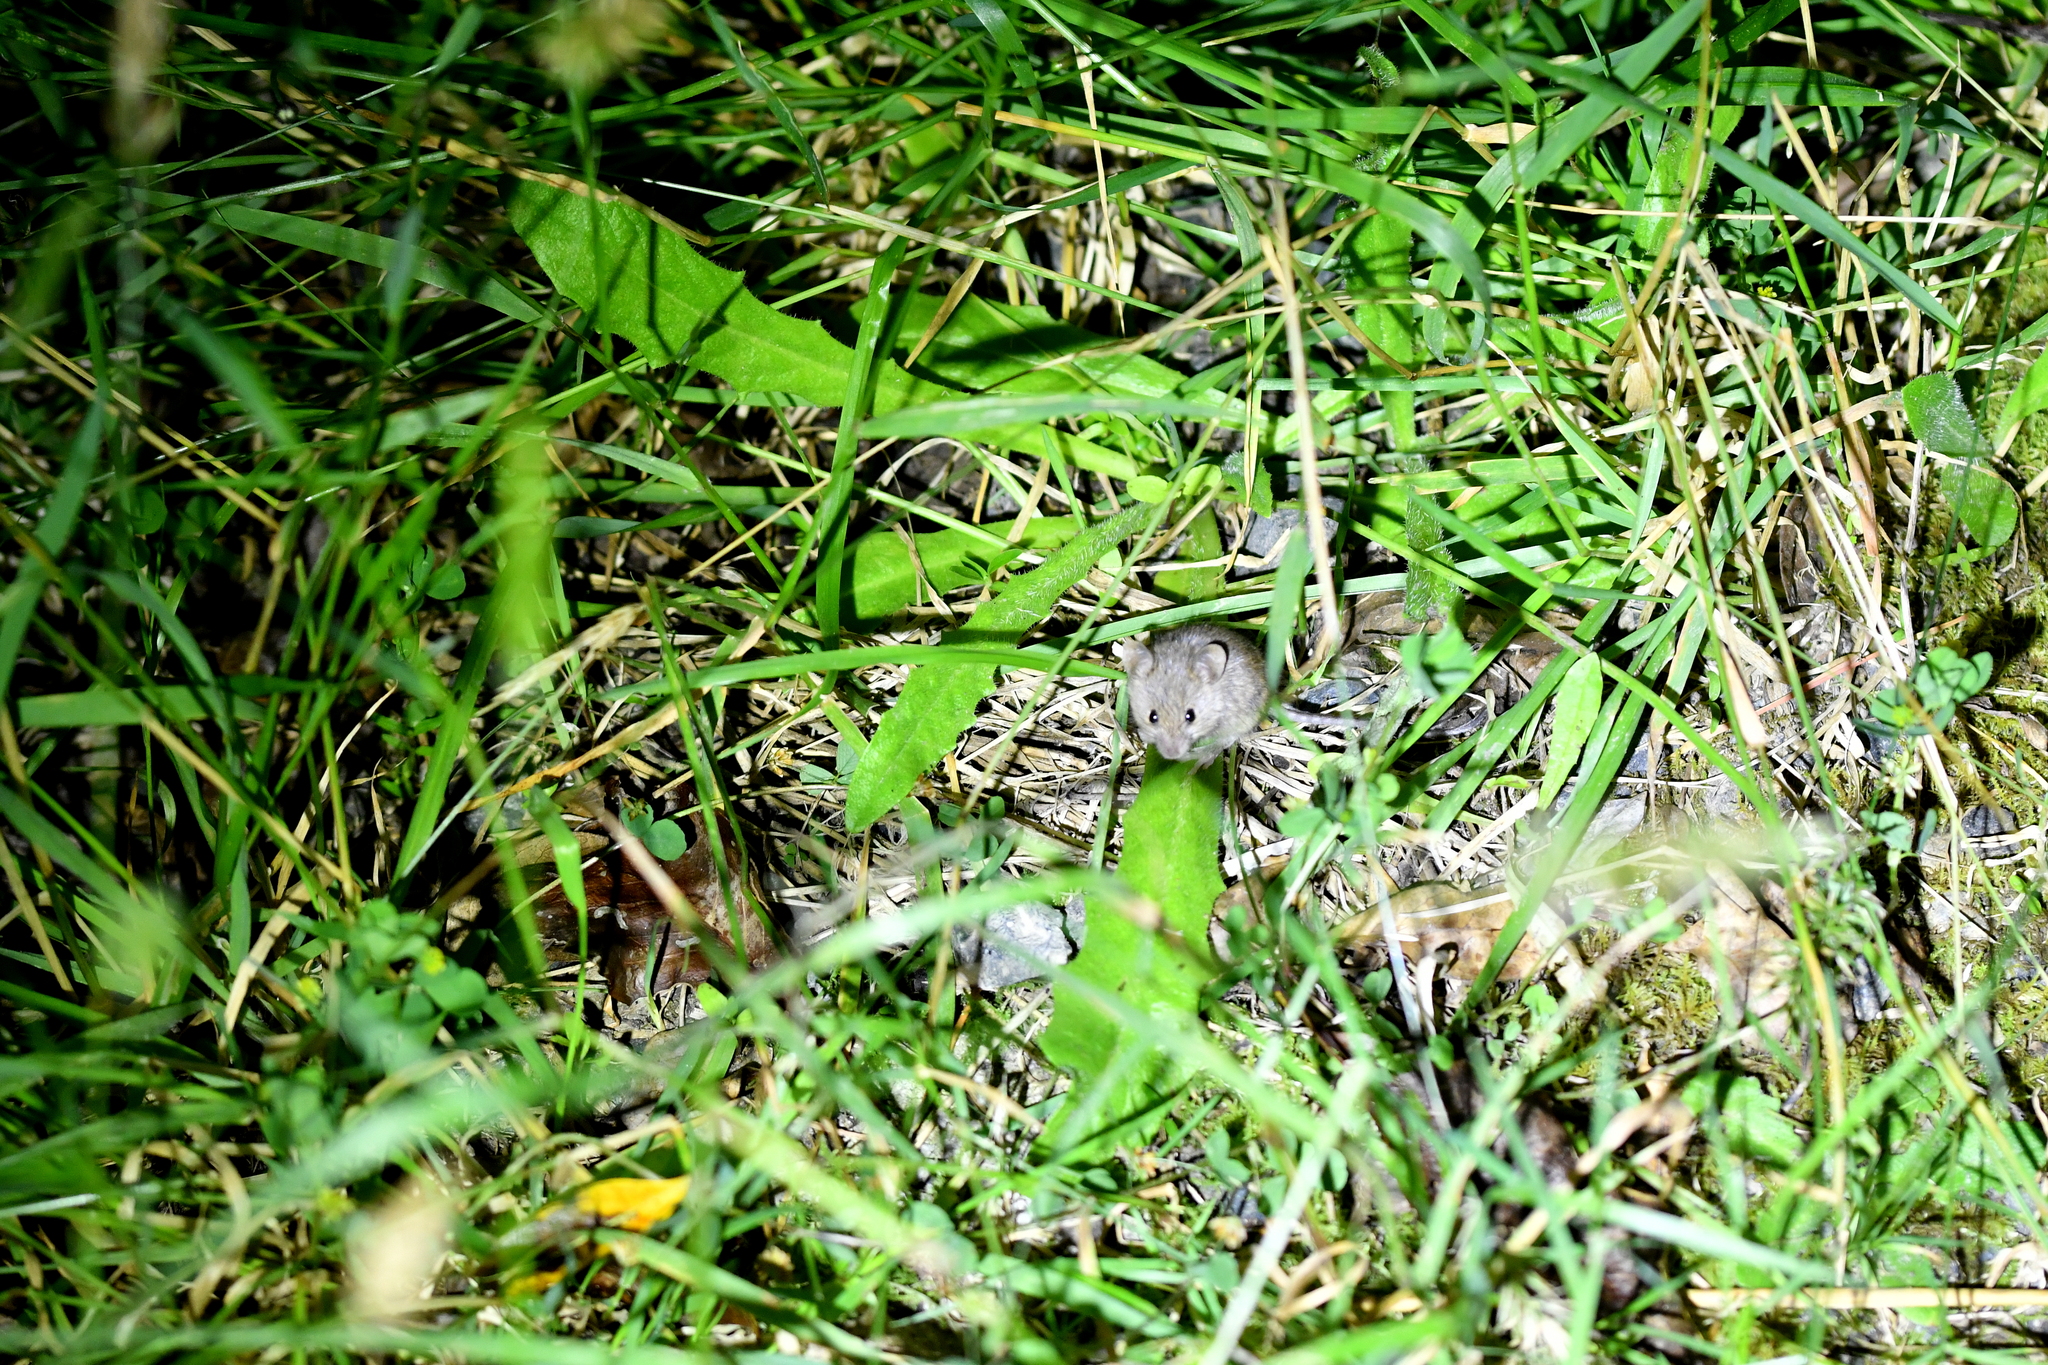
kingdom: Animalia
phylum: Chordata
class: Mammalia
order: Rodentia
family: Muridae
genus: Mus
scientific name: Mus musculus
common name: House mouse
